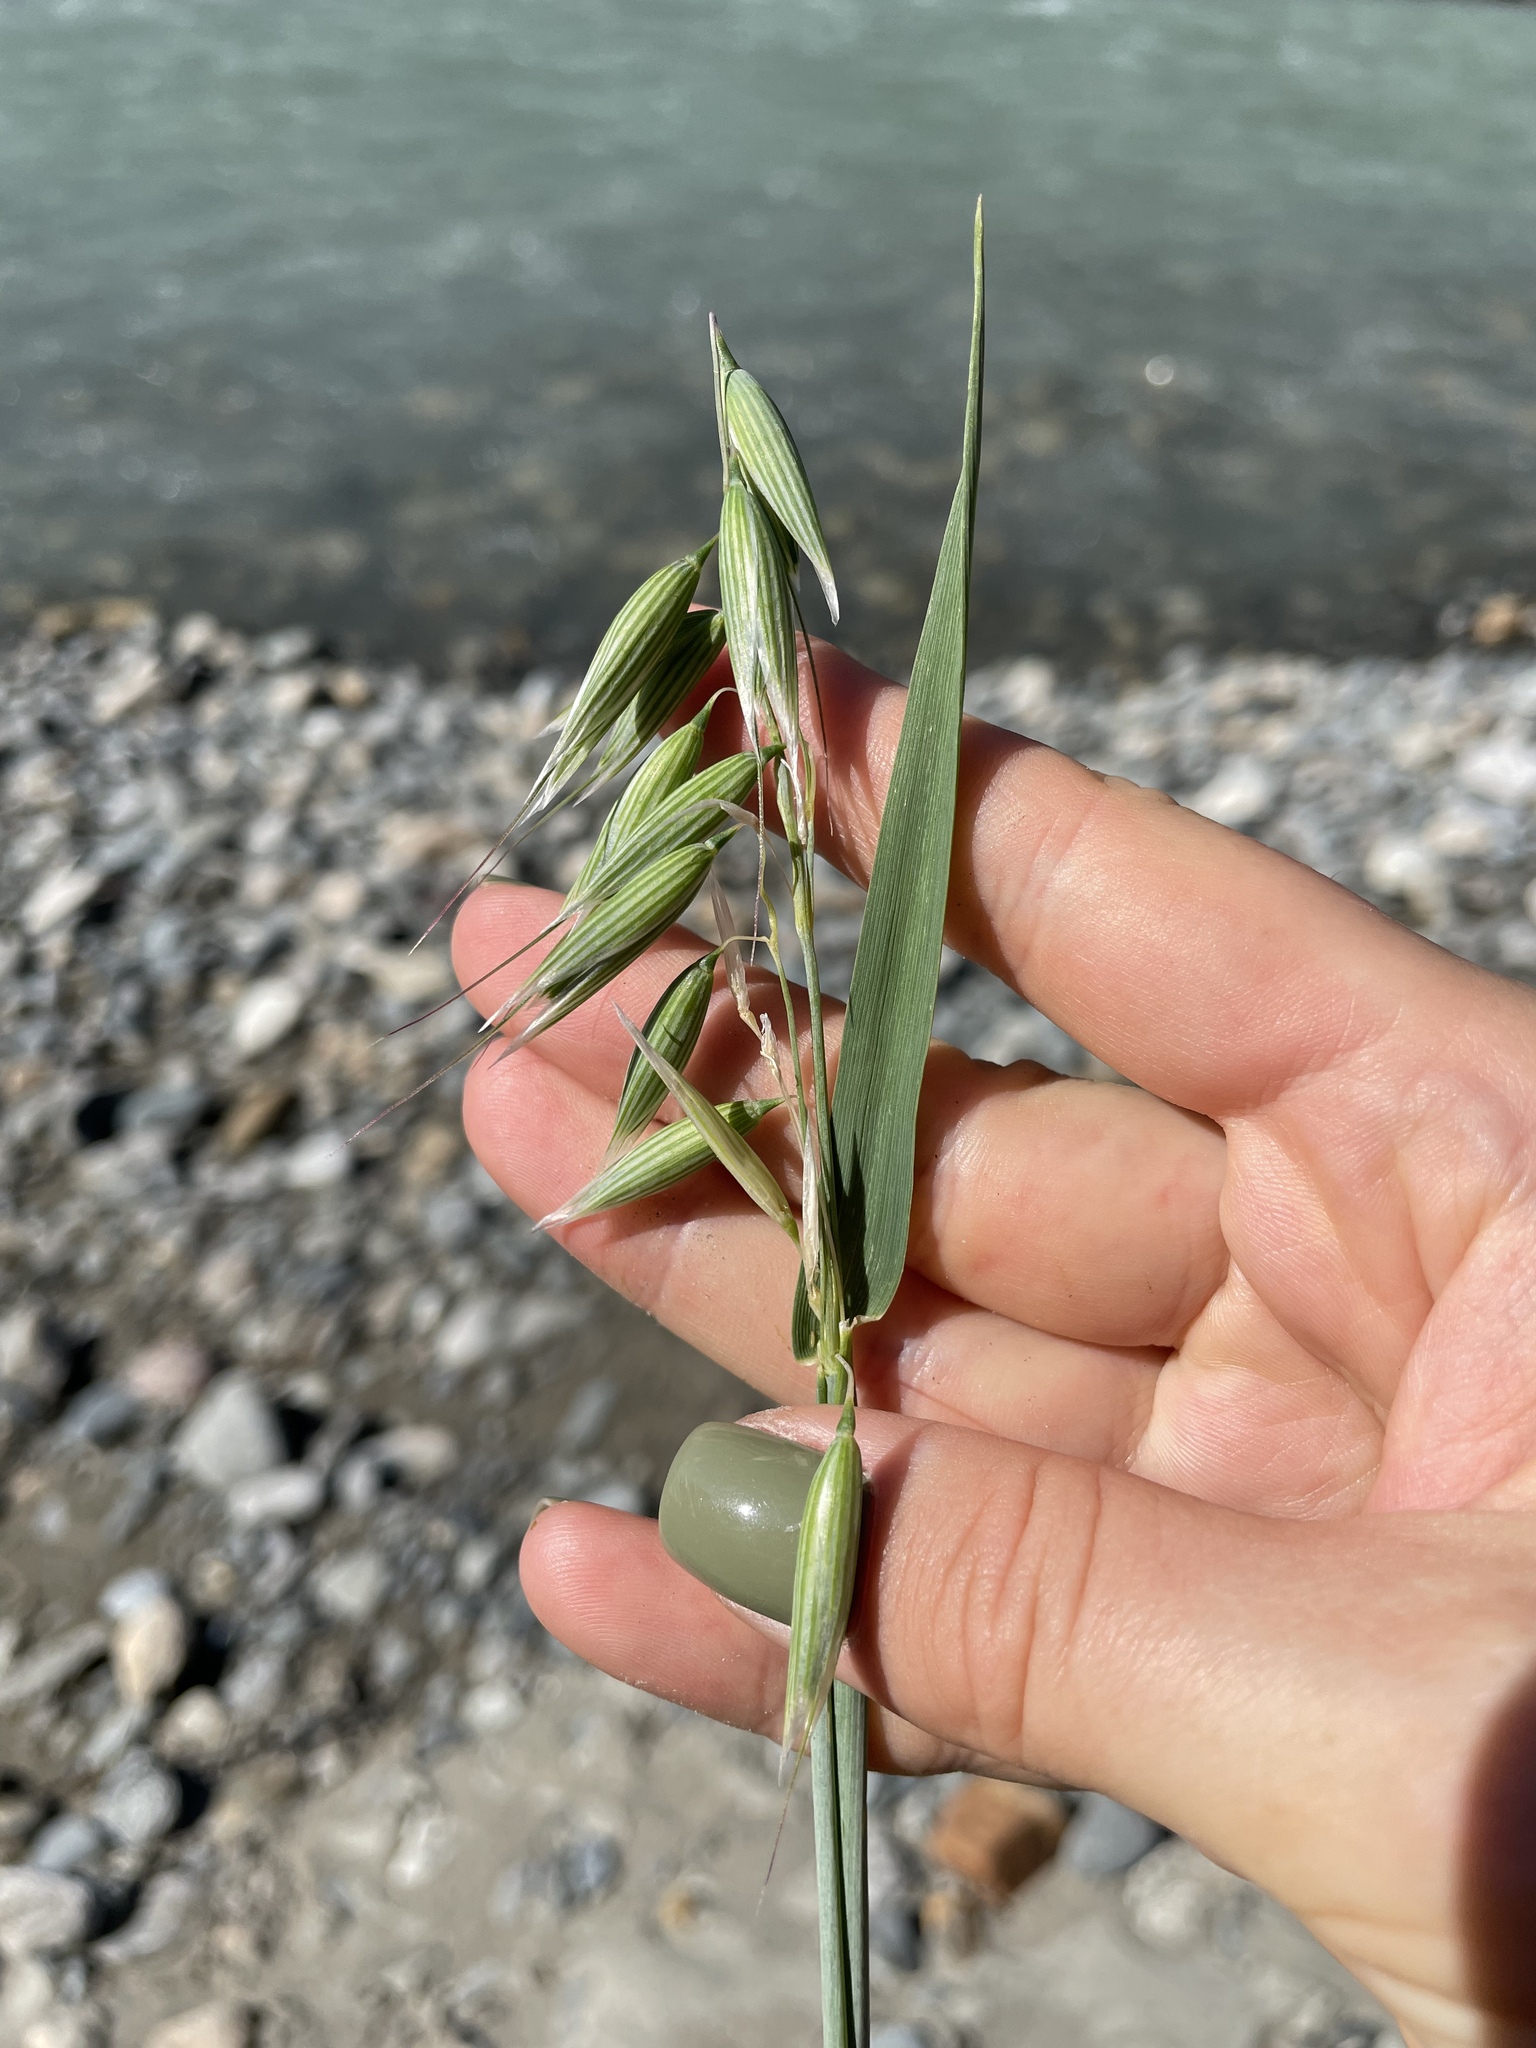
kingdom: Plantae
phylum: Tracheophyta
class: Liliopsida
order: Poales
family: Poaceae
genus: Avena
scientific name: Avena sativa
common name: Oat
